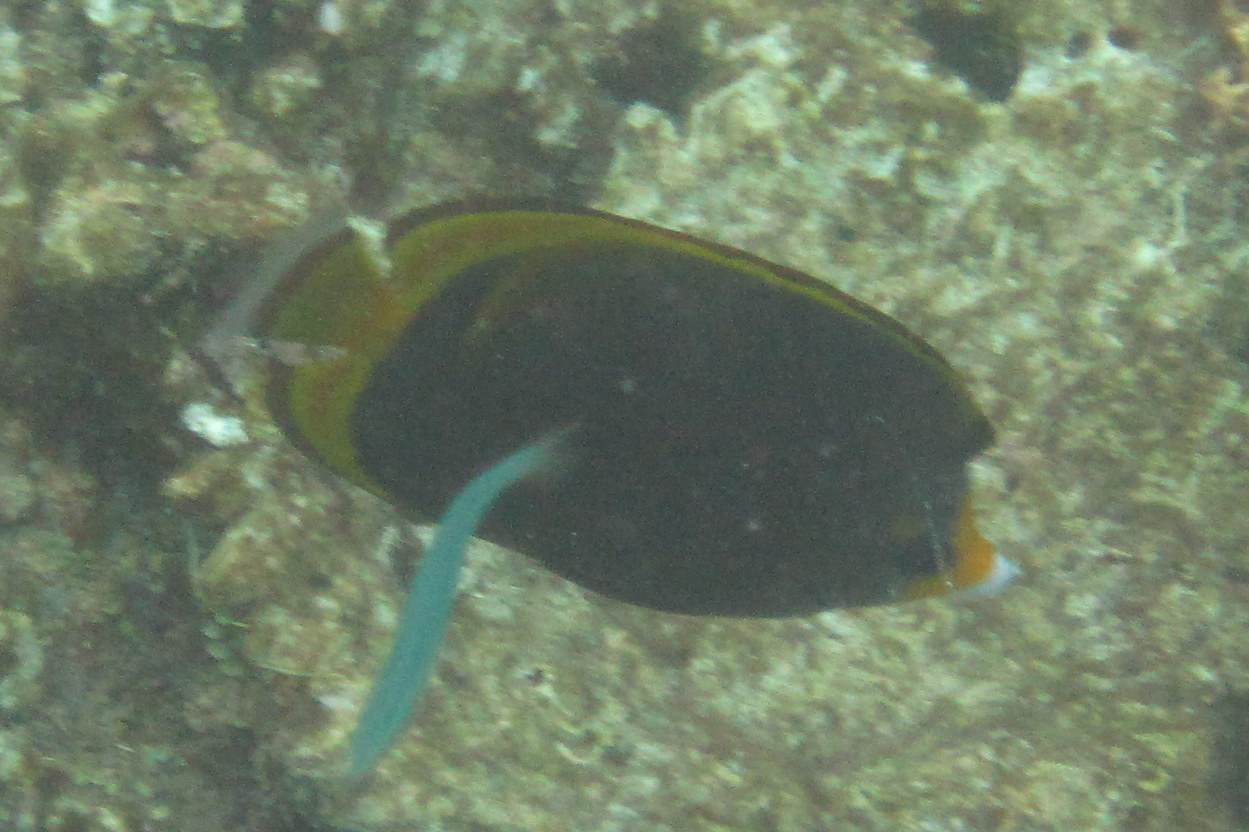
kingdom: Animalia
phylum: Chordata
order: Perciformes
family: Chaetodontidae
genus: Chaetodon
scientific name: Chaetodon flavirostris
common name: Black butterflyfish
